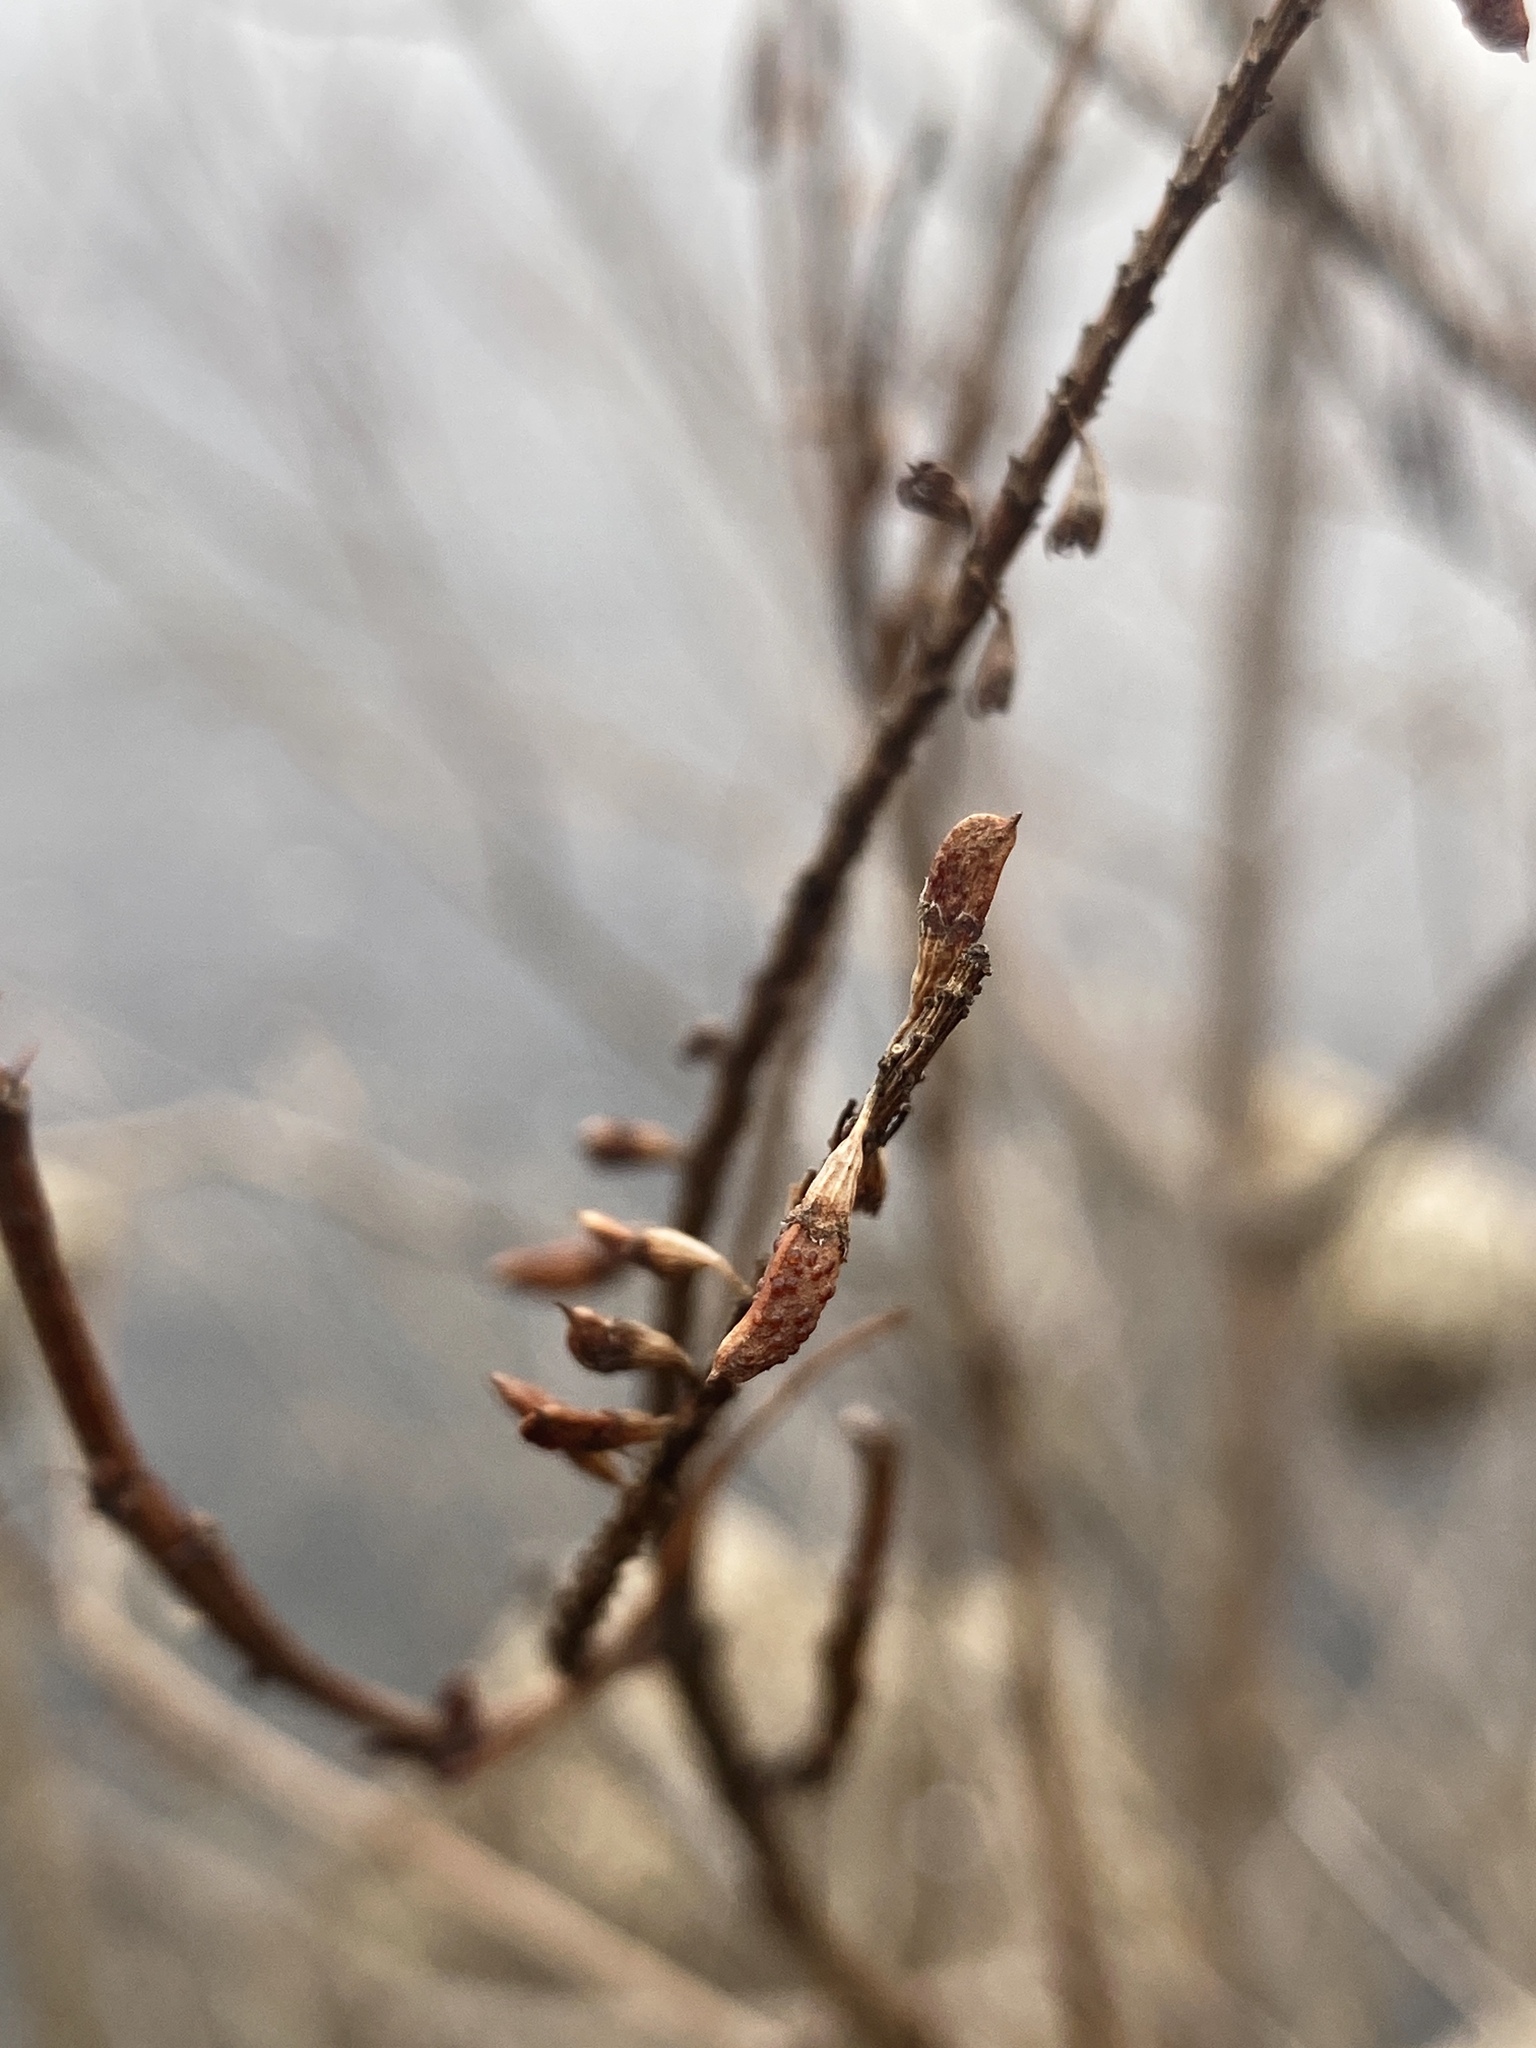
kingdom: Plantae
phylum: Tracheophyta
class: Magnoliopsida
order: Fabales
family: Fabaceae
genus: Amorpha
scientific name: Amorpha fruticosa
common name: False indigo
